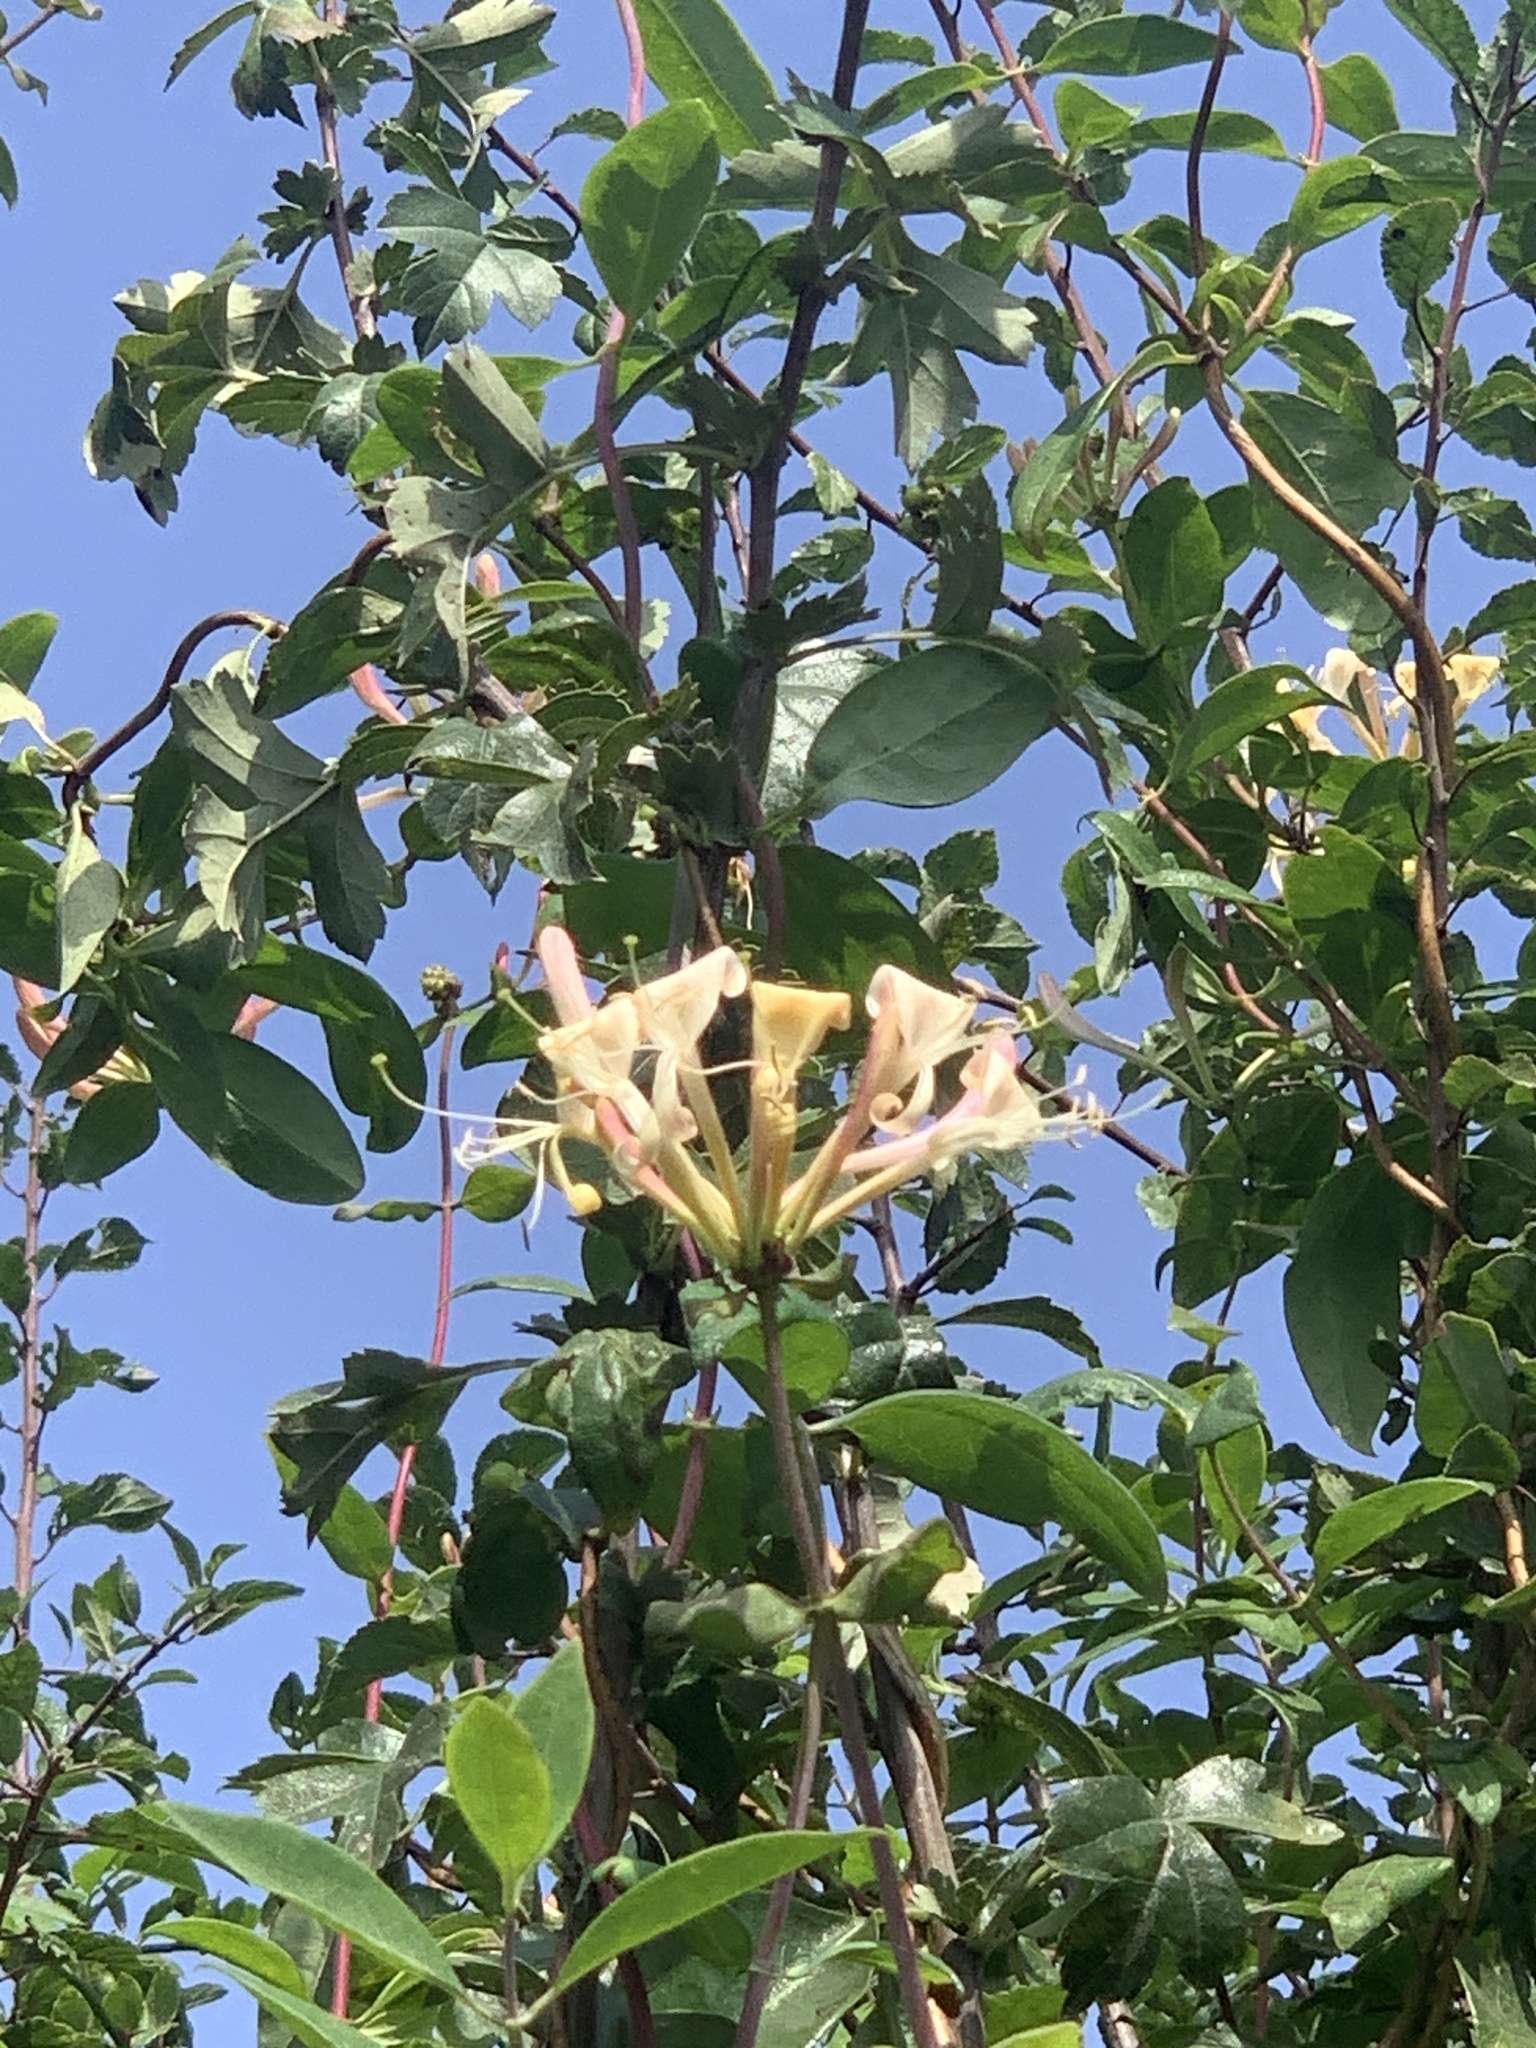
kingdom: Plantae
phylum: Tracheophyta
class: Magnoliopsida
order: Dipsacales
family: Caprifoliaceae
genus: Lonicera
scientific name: Lonicera periclymenum
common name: European honeysuckle
